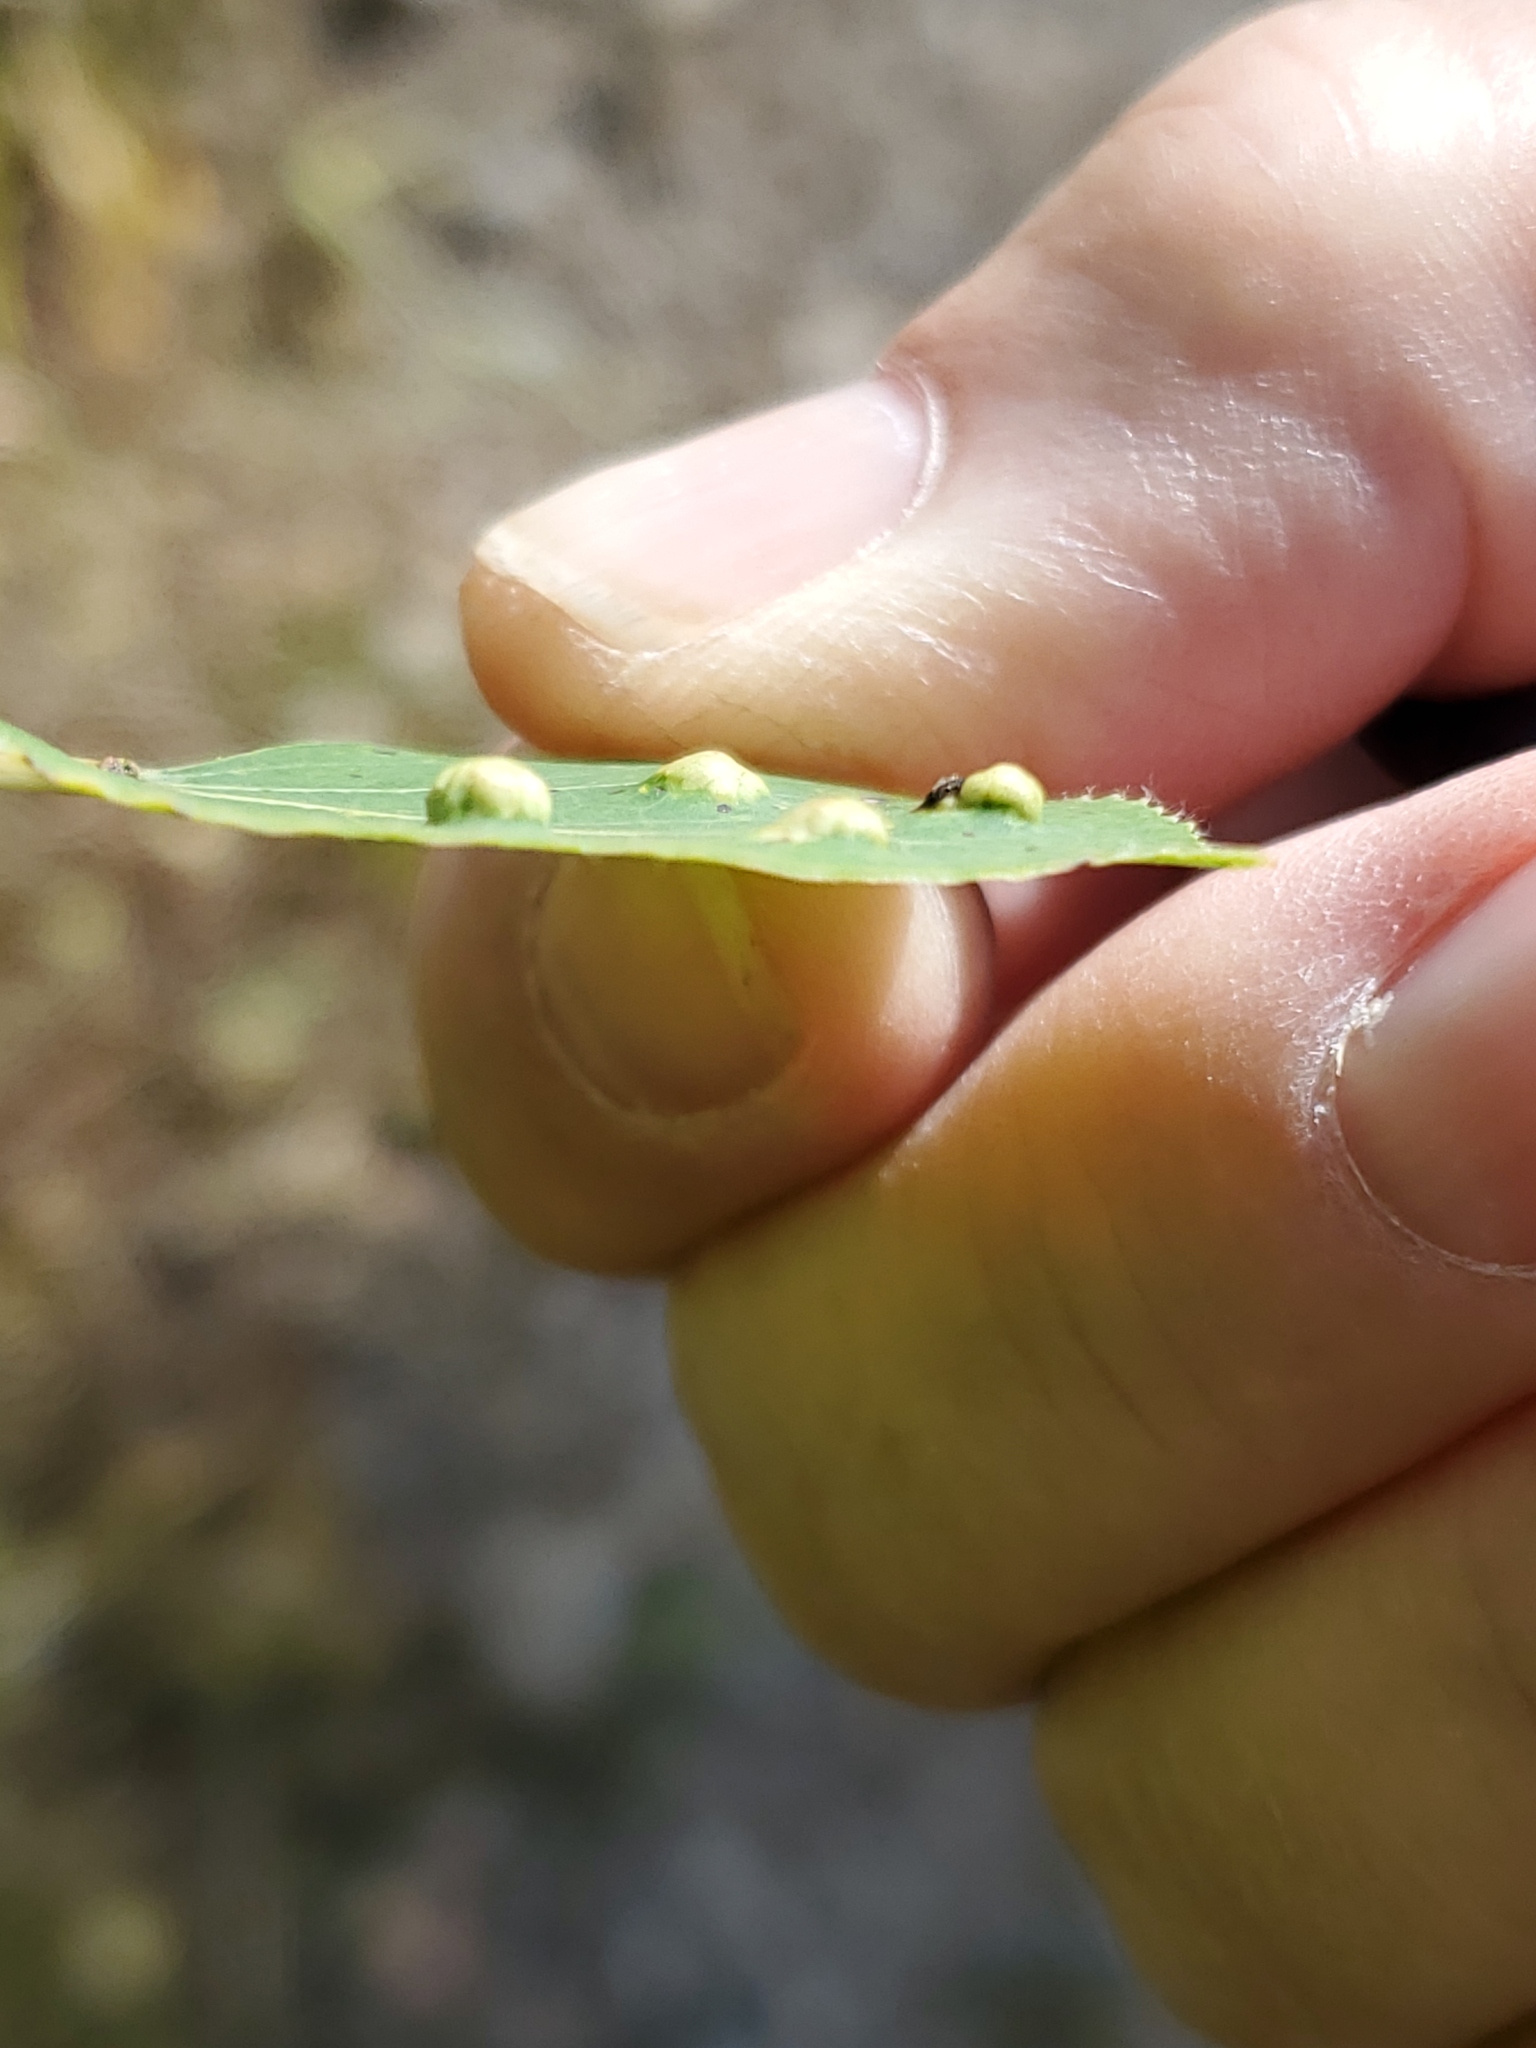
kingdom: Animalia
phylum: Arthropoda
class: Arachnida
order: Trombidiformes
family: Eriophyidae
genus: Phyllocoptes
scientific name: Phyllocoptes
